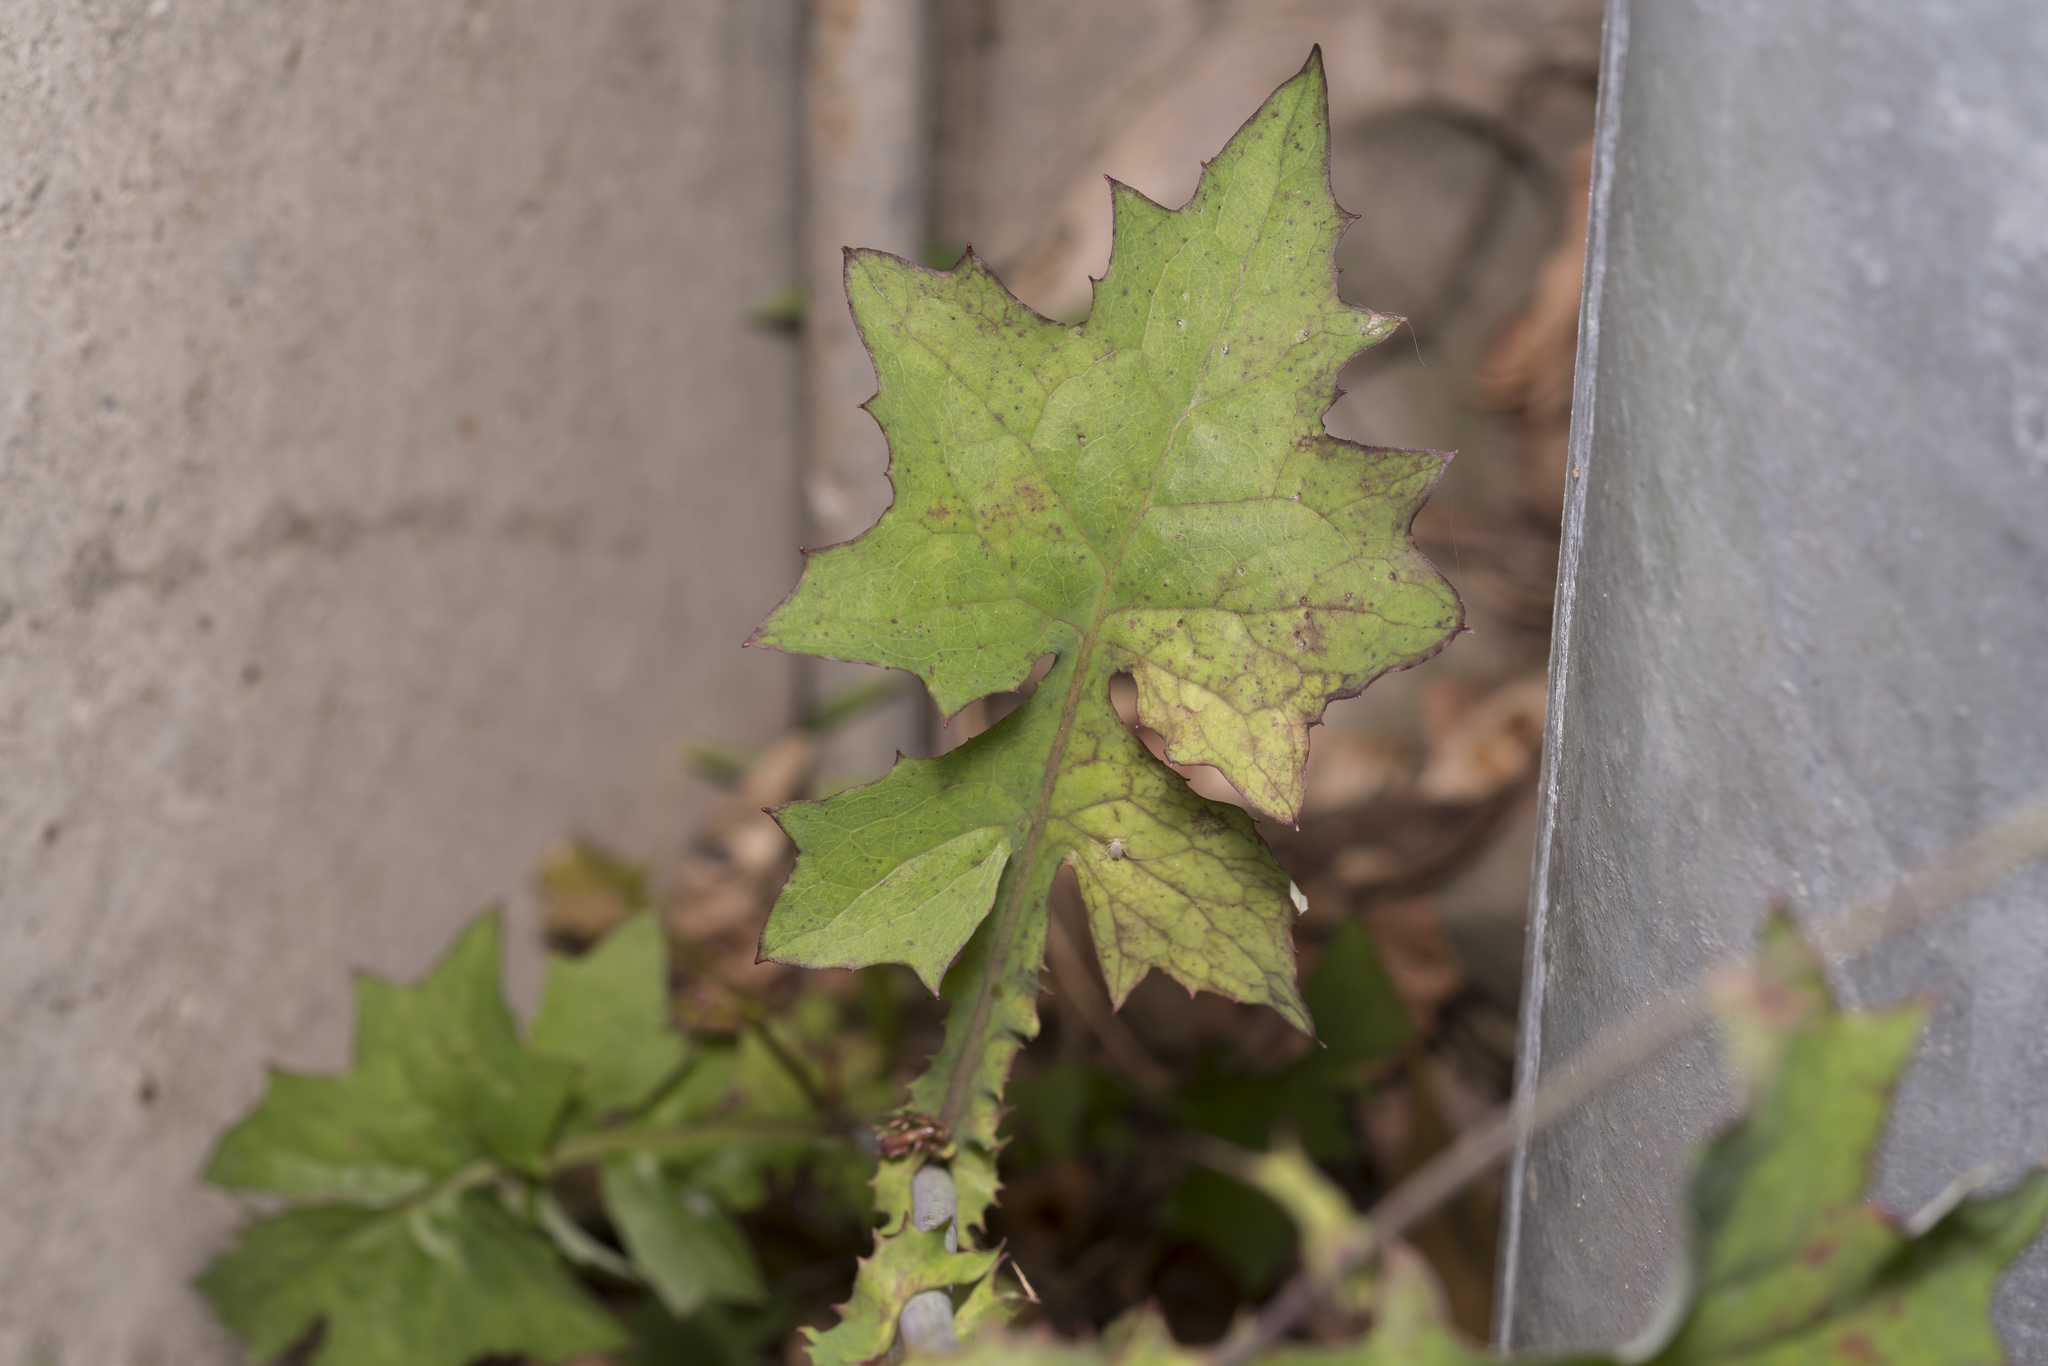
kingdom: Plantae
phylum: Tracheophyta
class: Magnoliopsida
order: Asterales
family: Asteraceae
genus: Mycelis
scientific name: Mycelis muralis
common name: Wall lettuce
